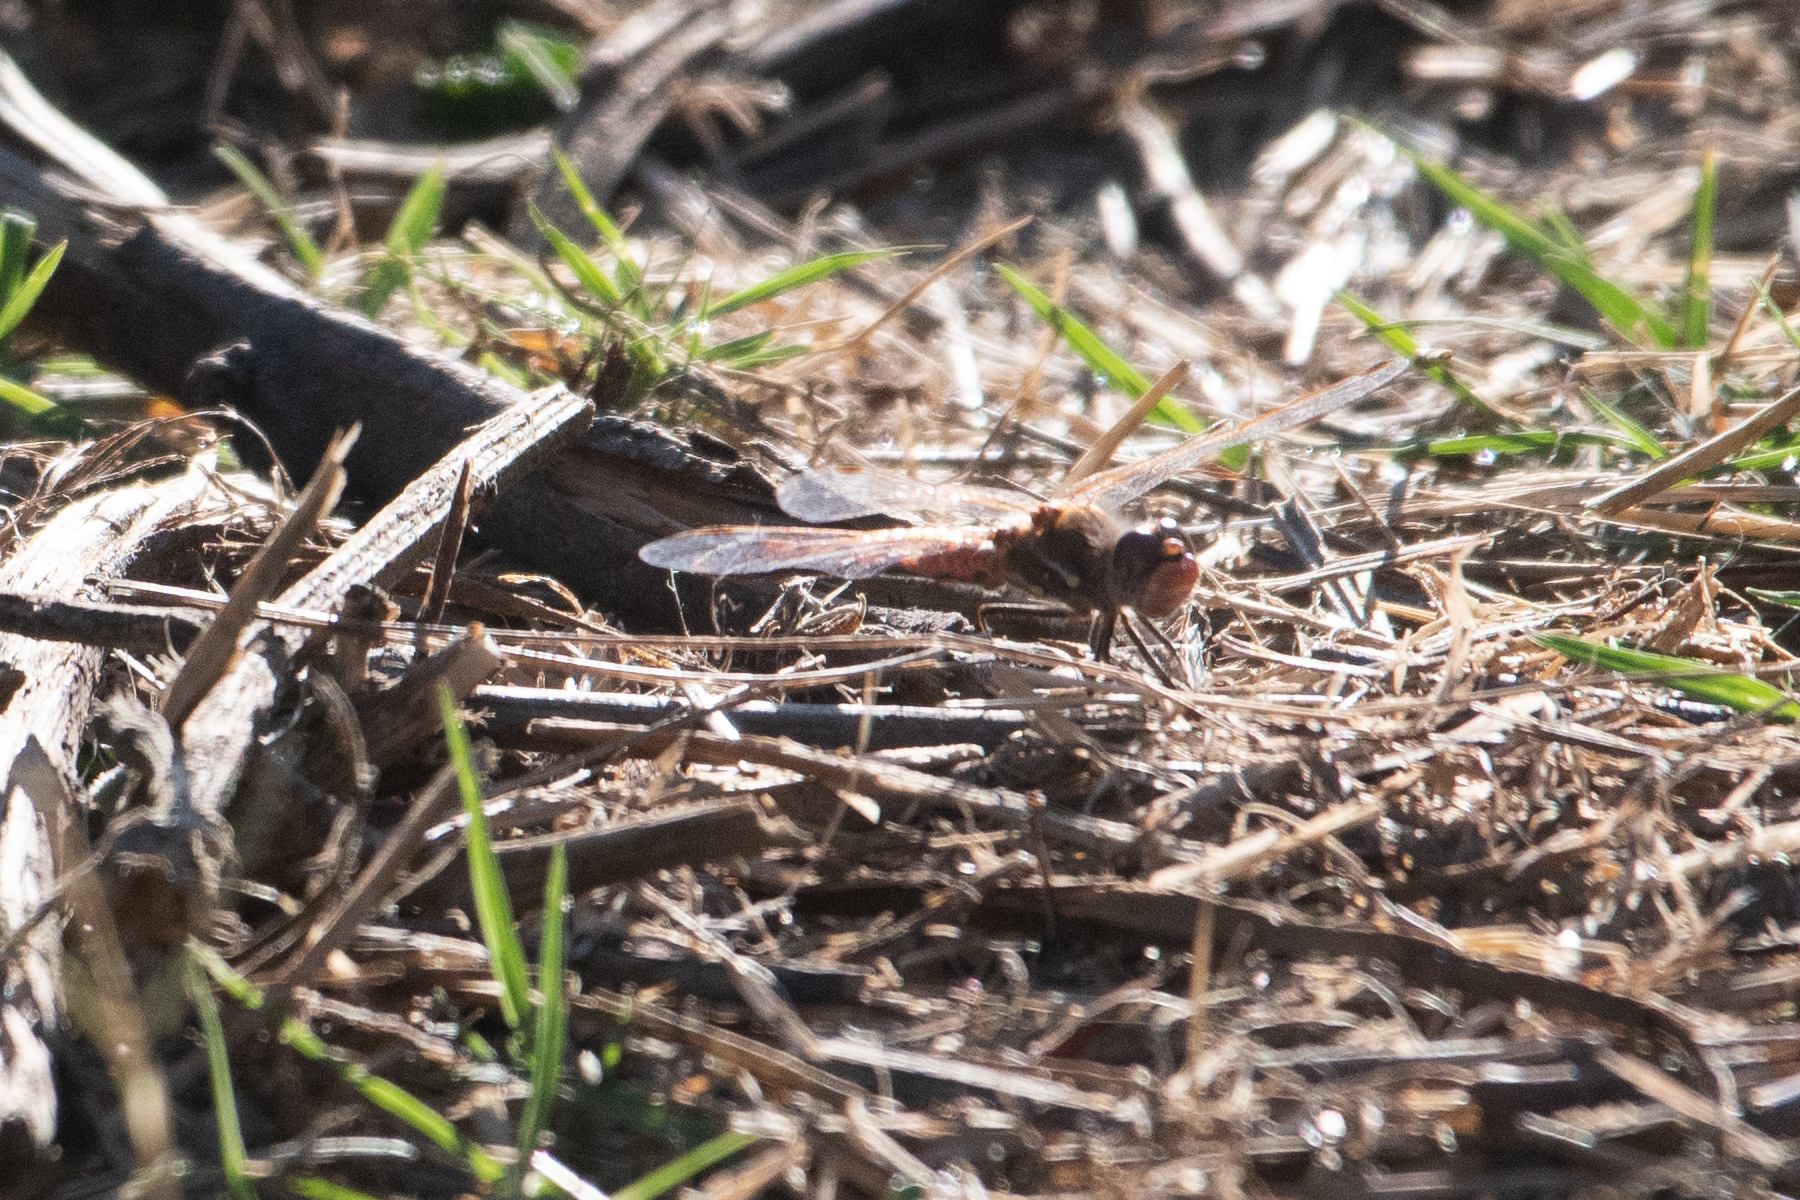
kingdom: Animalia
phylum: Arthropoda
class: Insecta
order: Odonata
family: Libellulidae
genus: Sympetrum
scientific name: Sympetrum corruptum
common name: Variegated meadowhawk
